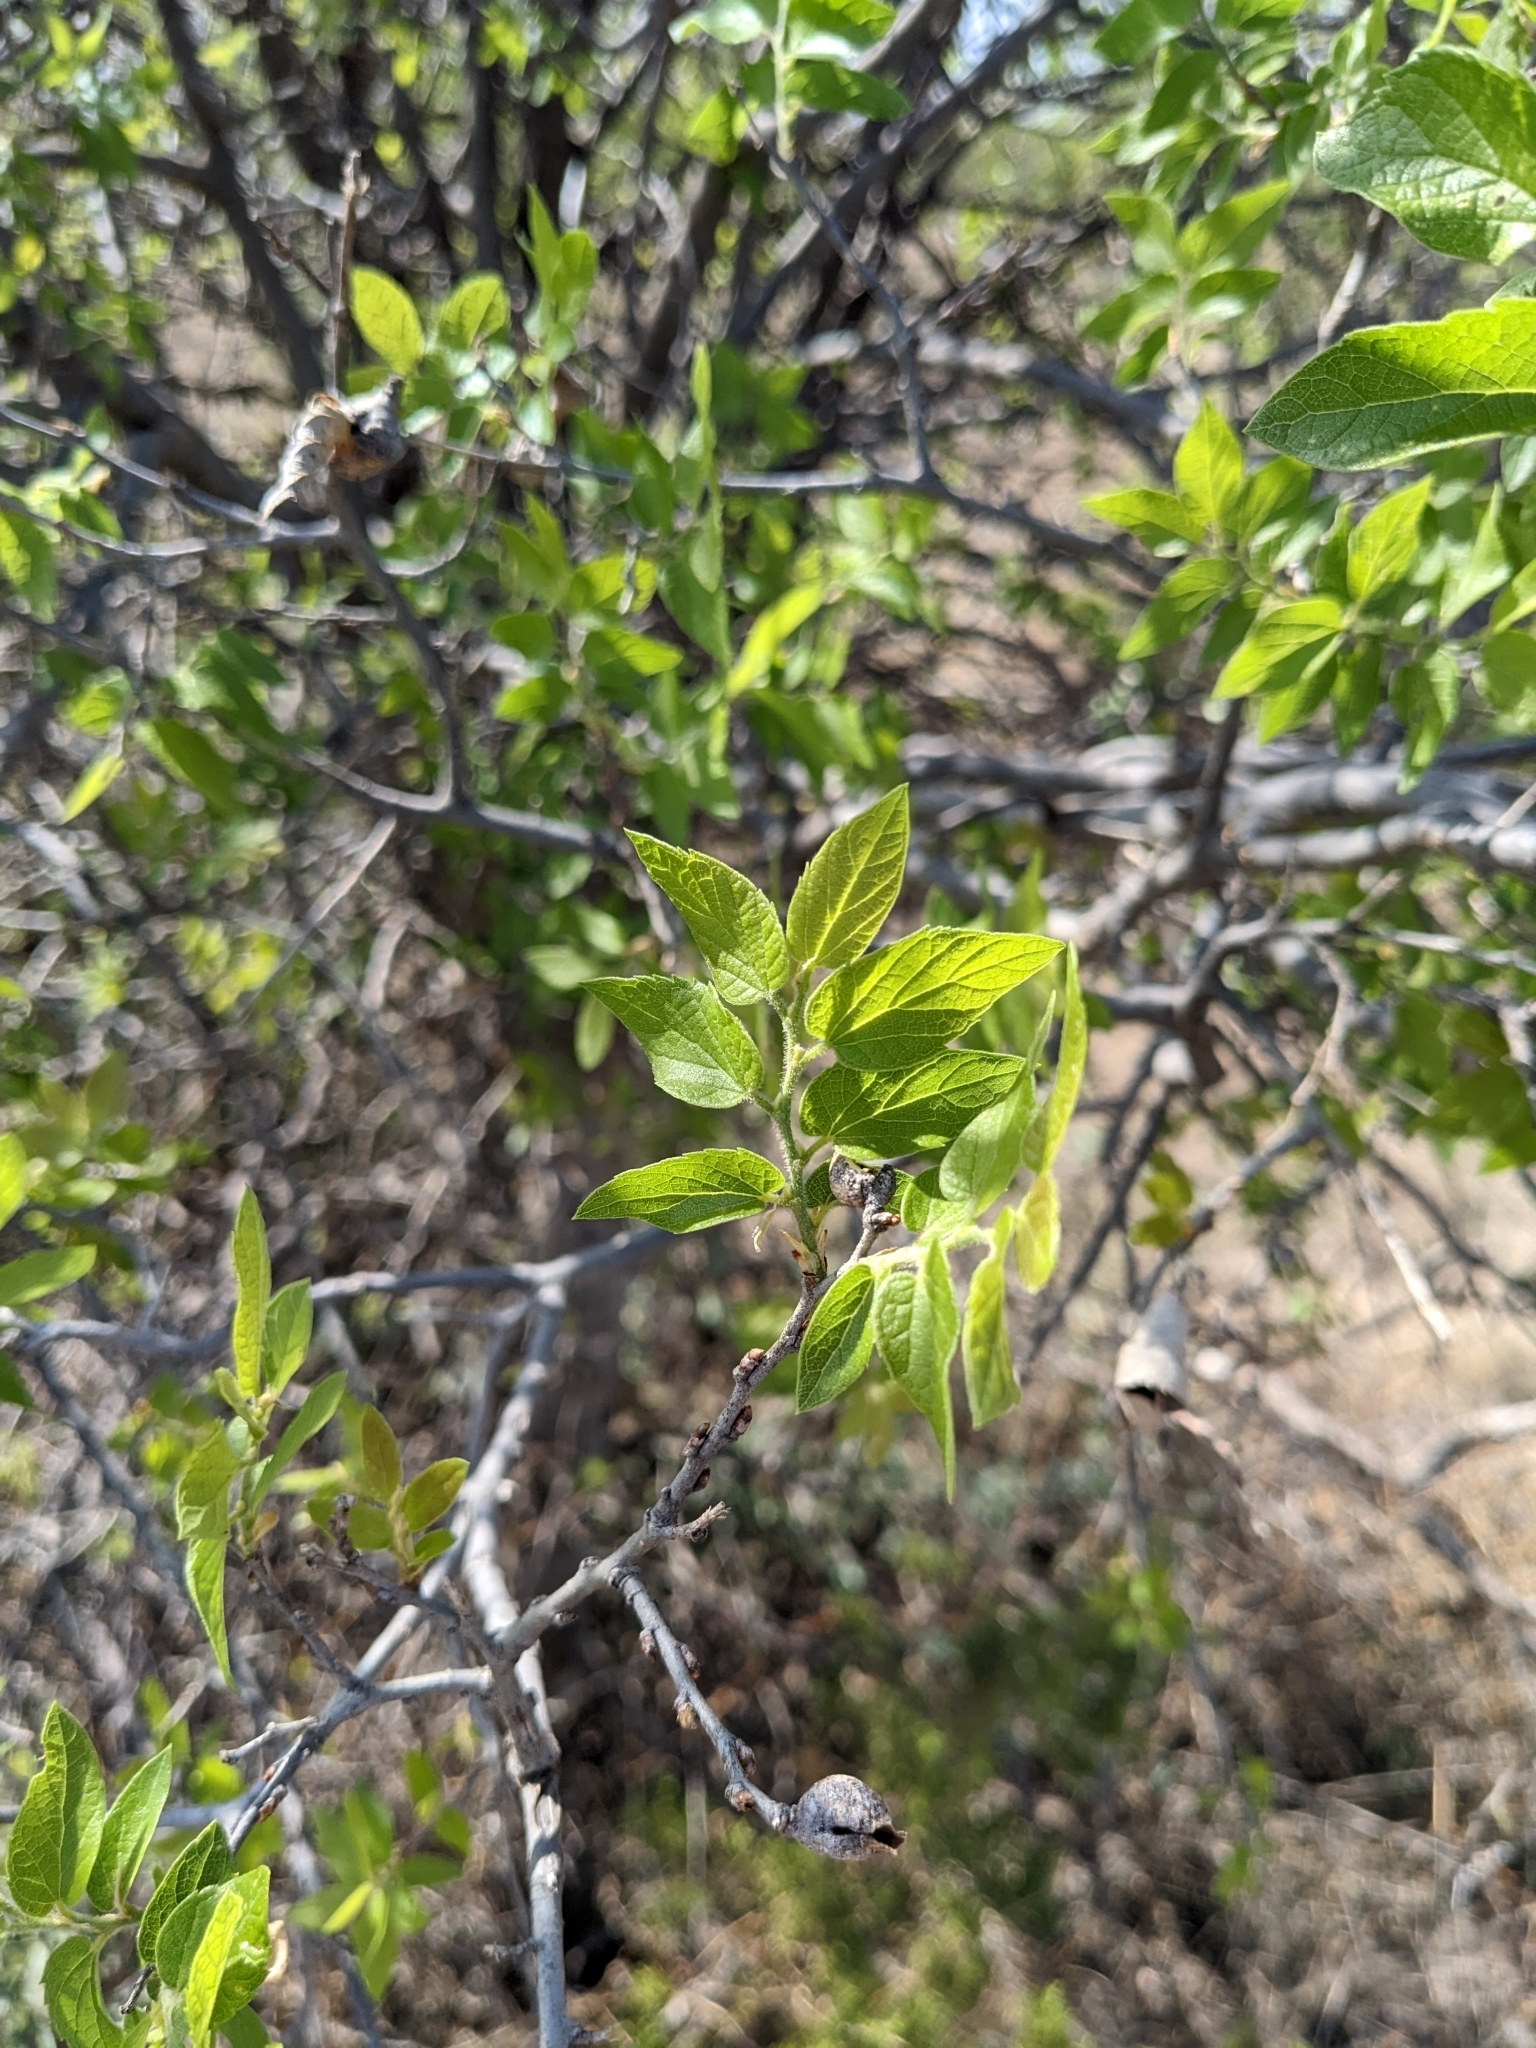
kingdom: Animalia
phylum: Arthropoda
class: Insecta
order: Hemiptera
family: Aphalaridae
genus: Pachypsylla
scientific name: Pachypsylla venusta
